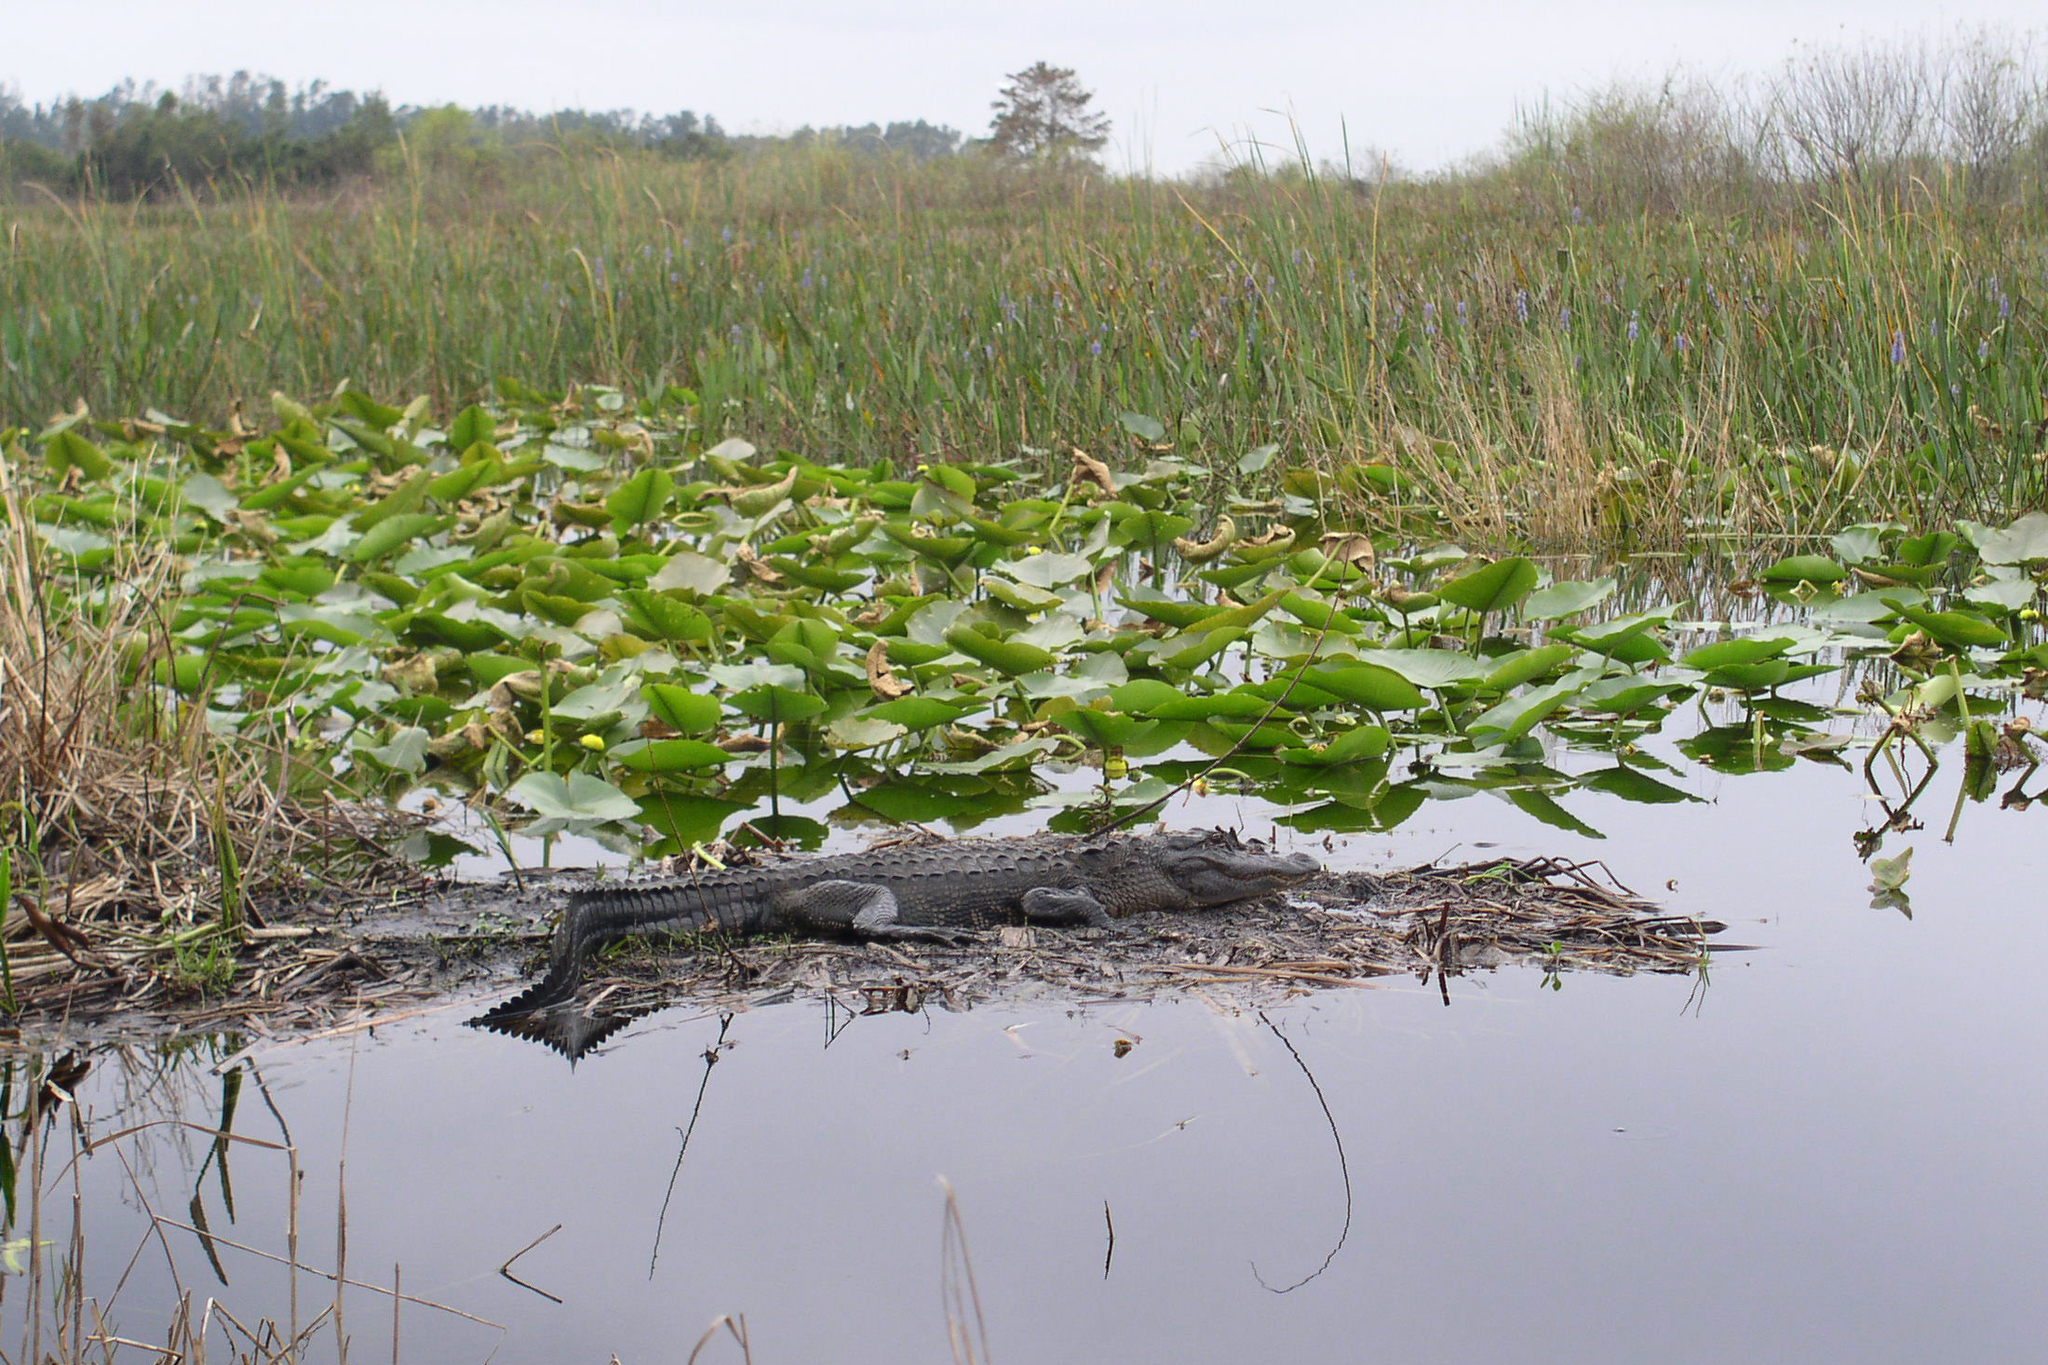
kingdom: Animalia
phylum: Chordata
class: Crocodylia
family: Alligatoridae
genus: Alligator
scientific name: Alligator mississippiensis
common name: American alligator
